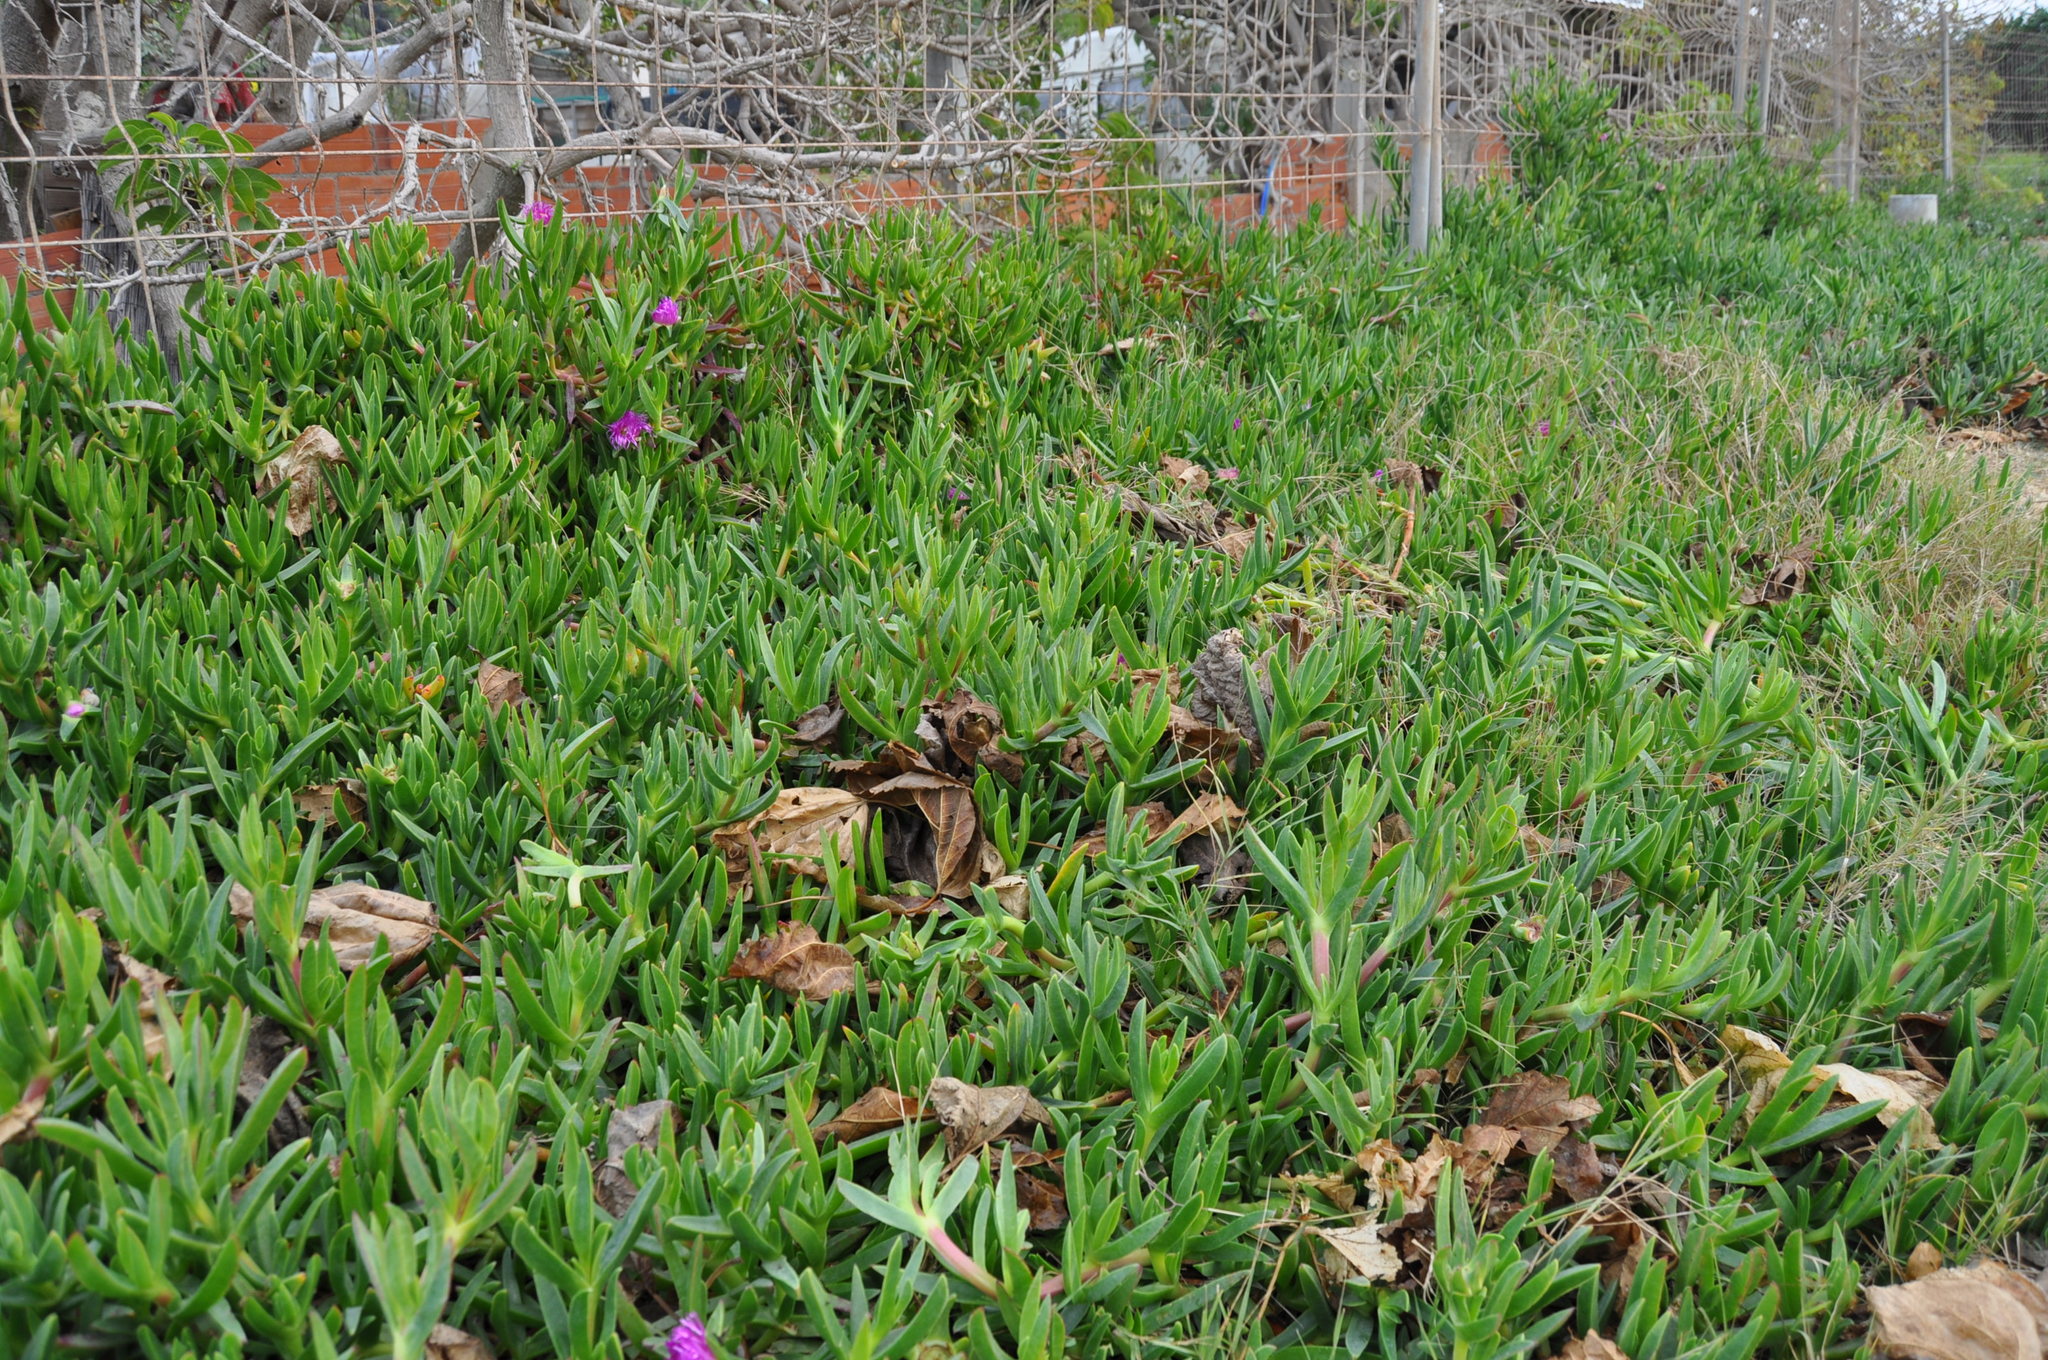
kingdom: Plantae
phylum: Tracheophyta
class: Magnoliopsida
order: Caryophyllales
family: Aizoaceae
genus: Carpobrotus
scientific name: Carpobrotus acinaciformis
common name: Sally-my-handsome
